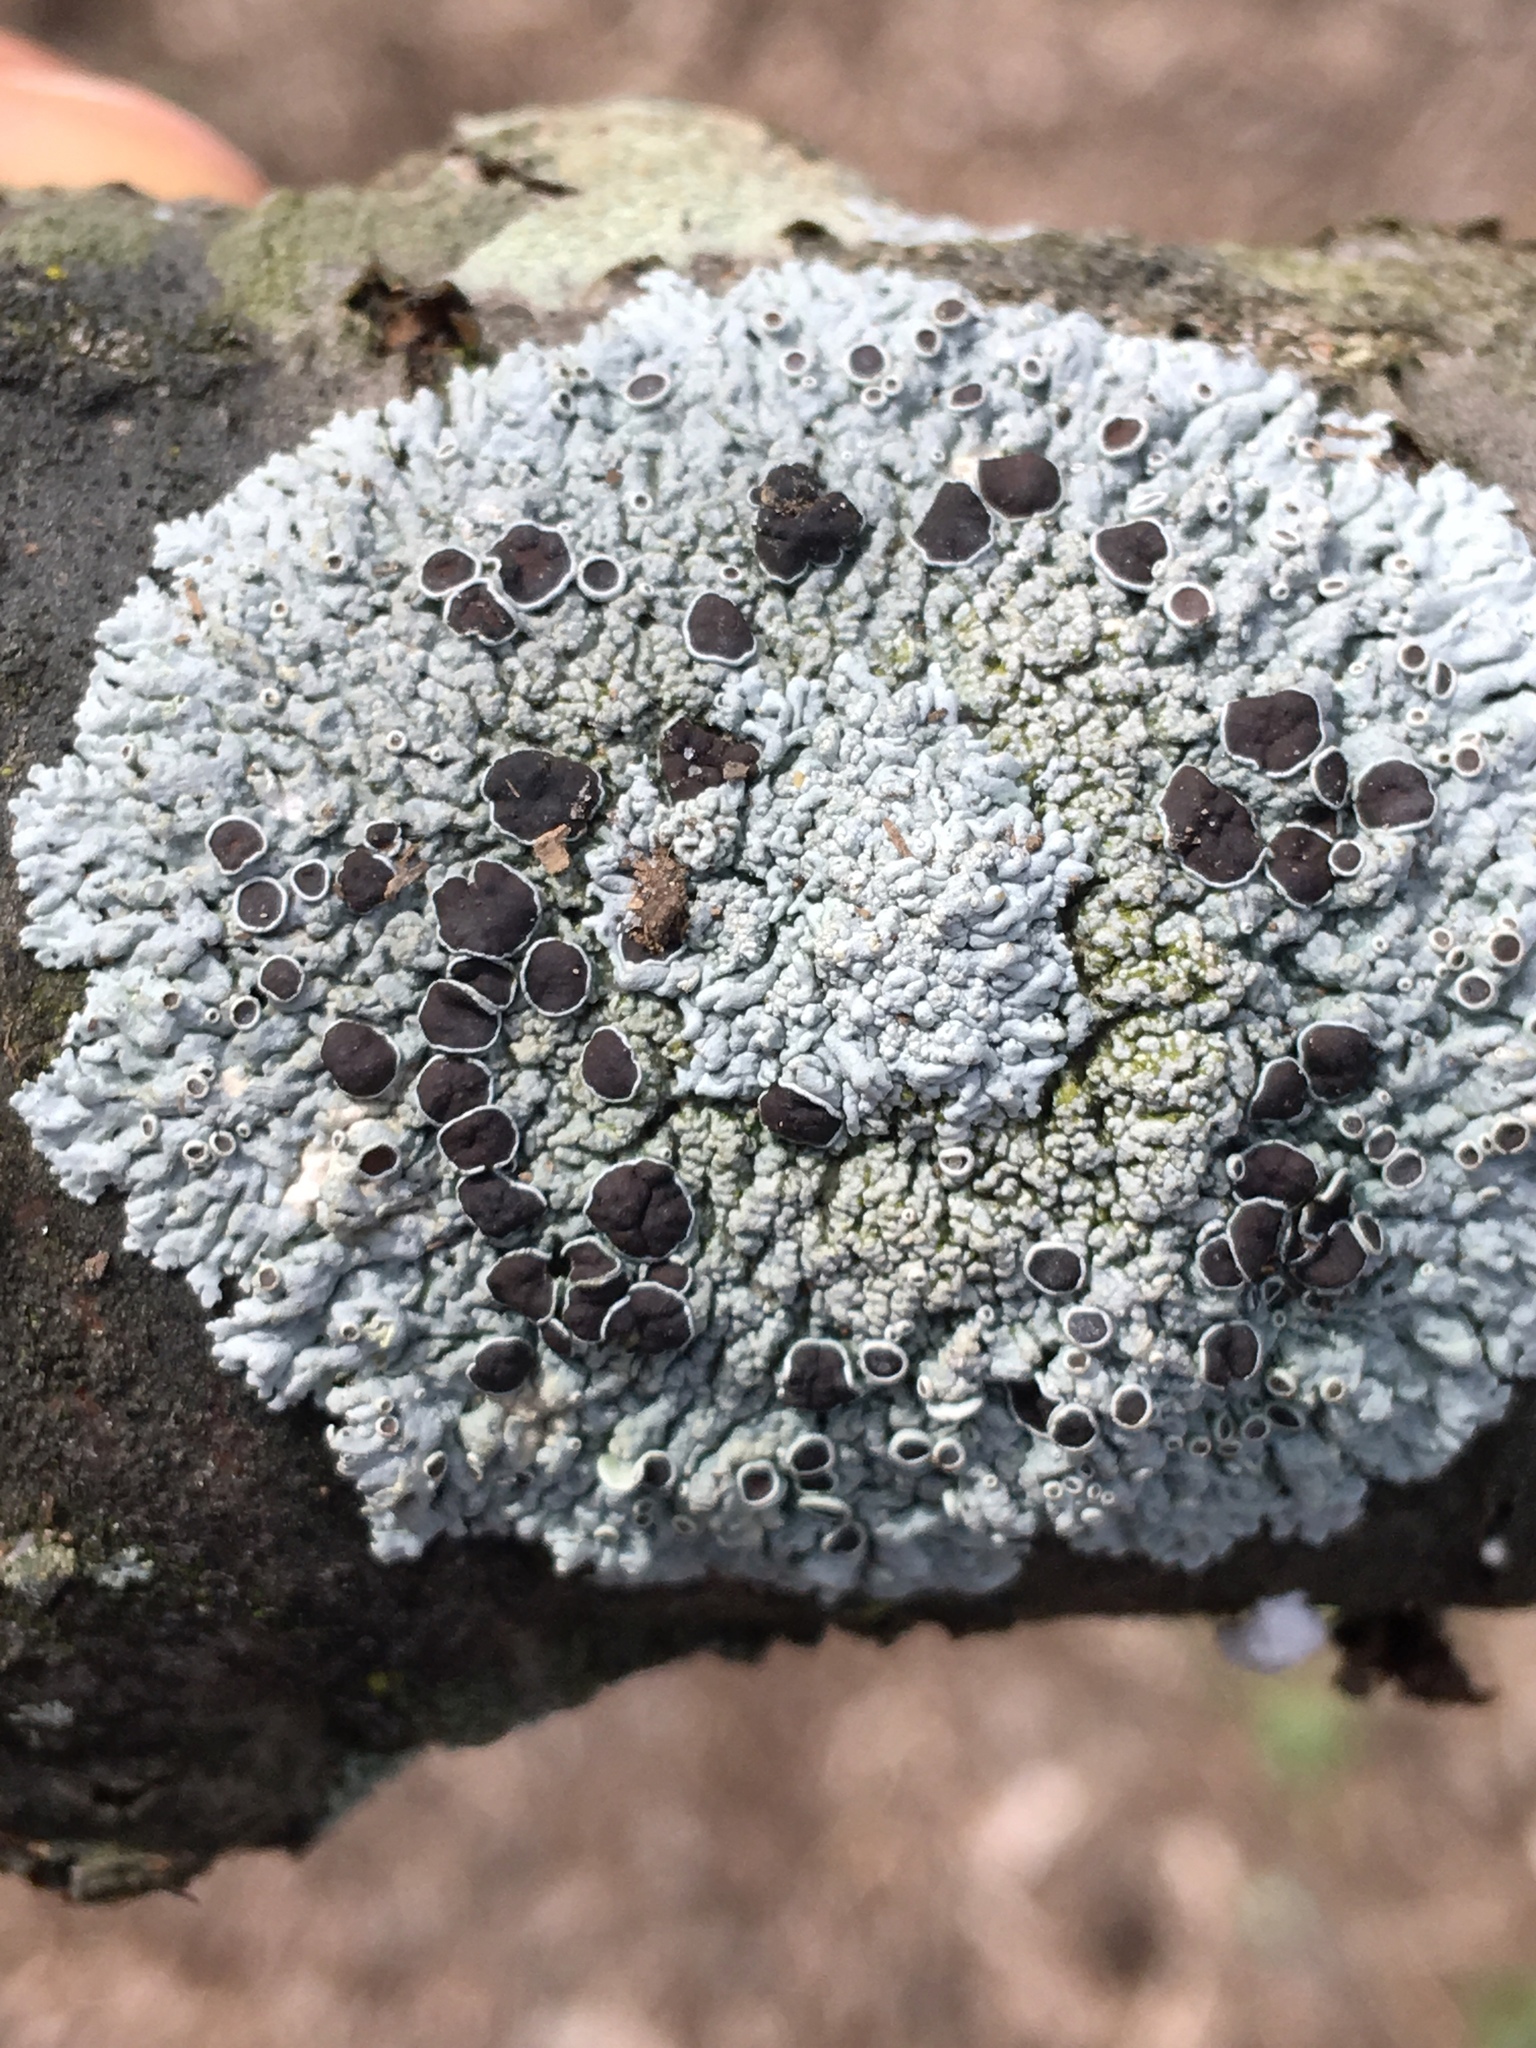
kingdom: Fungi
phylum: Ascomycota
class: Lecanoromycetes
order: Caliciales
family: Physciaceae
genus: Physcia
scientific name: Physcia stellaris
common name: Star rosette lichen
